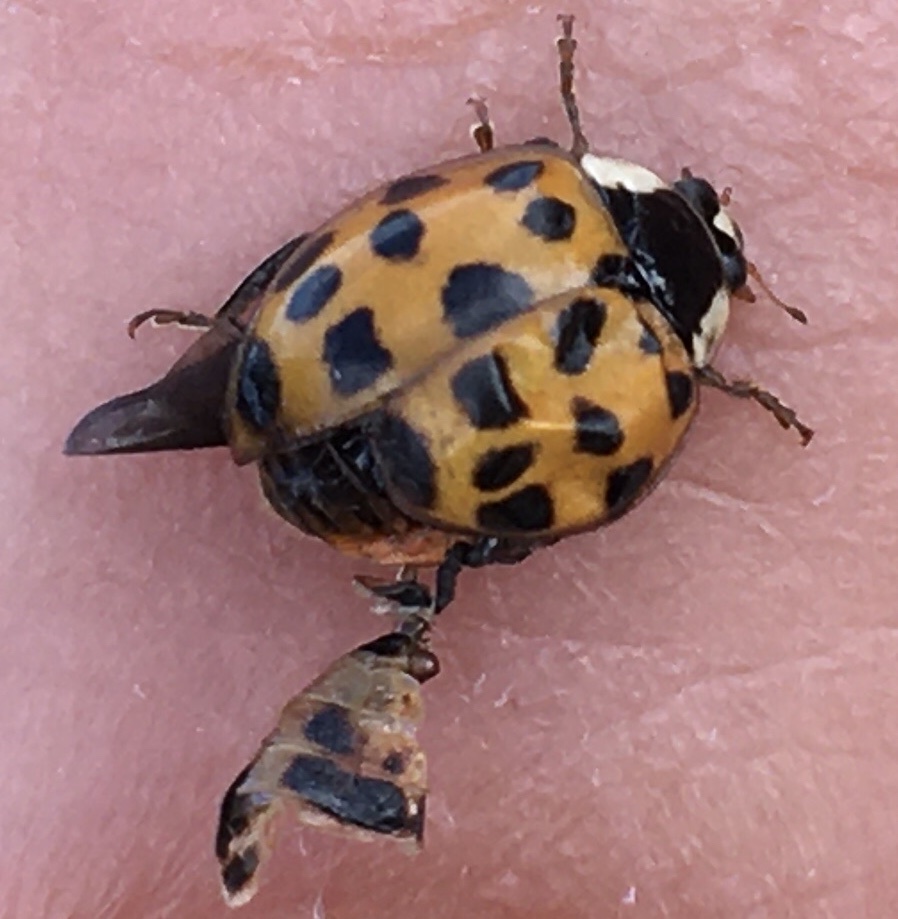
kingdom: Animalia
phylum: Arthropoda
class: Insecta
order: Coleoptera
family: Coccinellidae
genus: Harmonia
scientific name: Harmonia axyridis
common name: Harlequin ladybird
